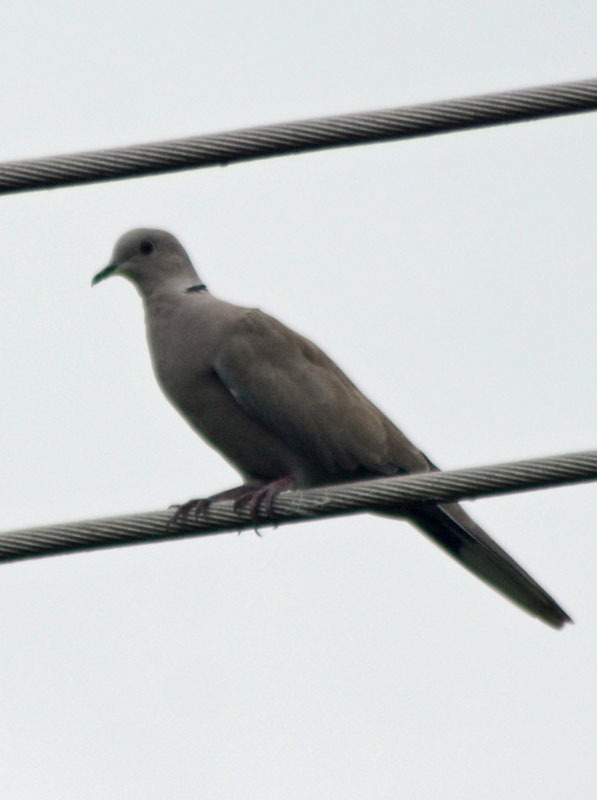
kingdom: Animalia
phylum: Chordata
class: Aves
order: Columbiformes
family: Columbidae
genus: Streptopelia
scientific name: Streptopelia decaocto
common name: Eurasian collared dove
